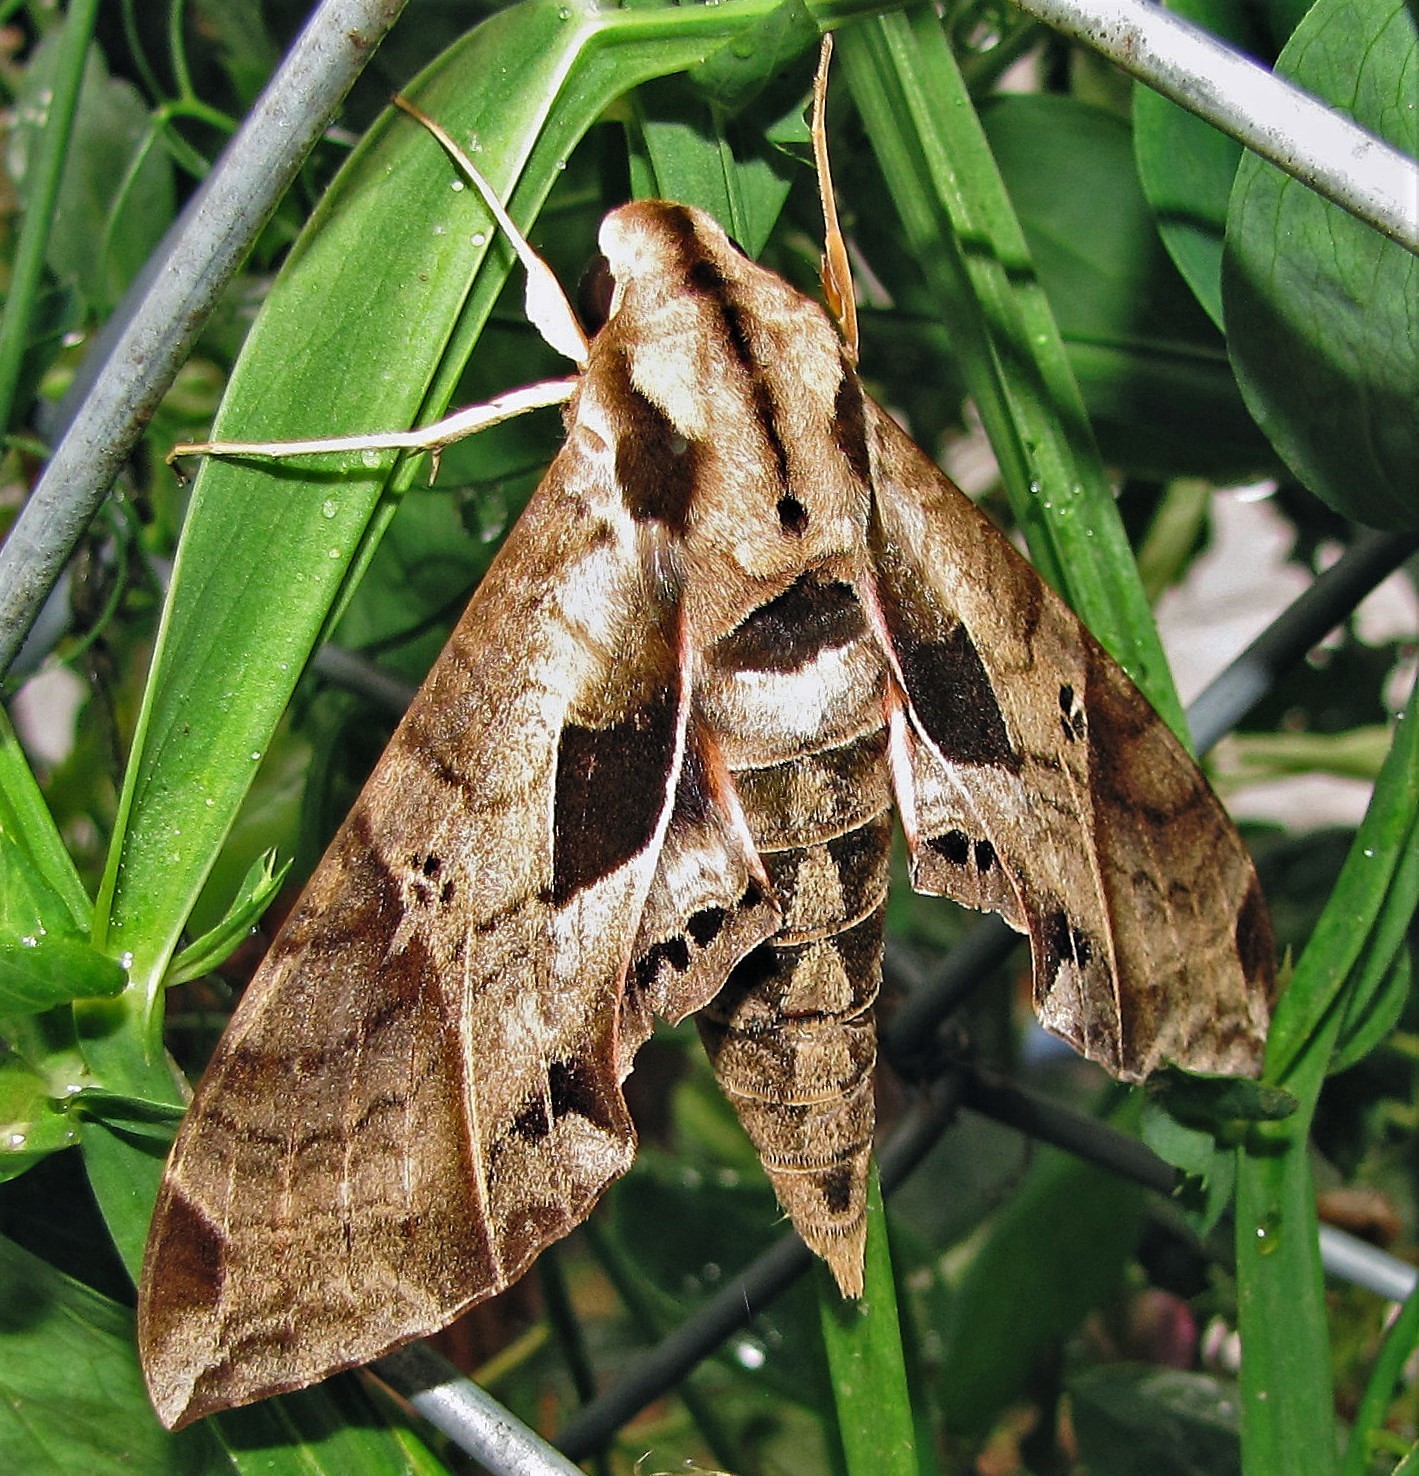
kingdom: Animalia
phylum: Arthropoda
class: Insecta
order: Lepidoptera
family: Sphingidae
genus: Eumorpha
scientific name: Eumorpha analis
